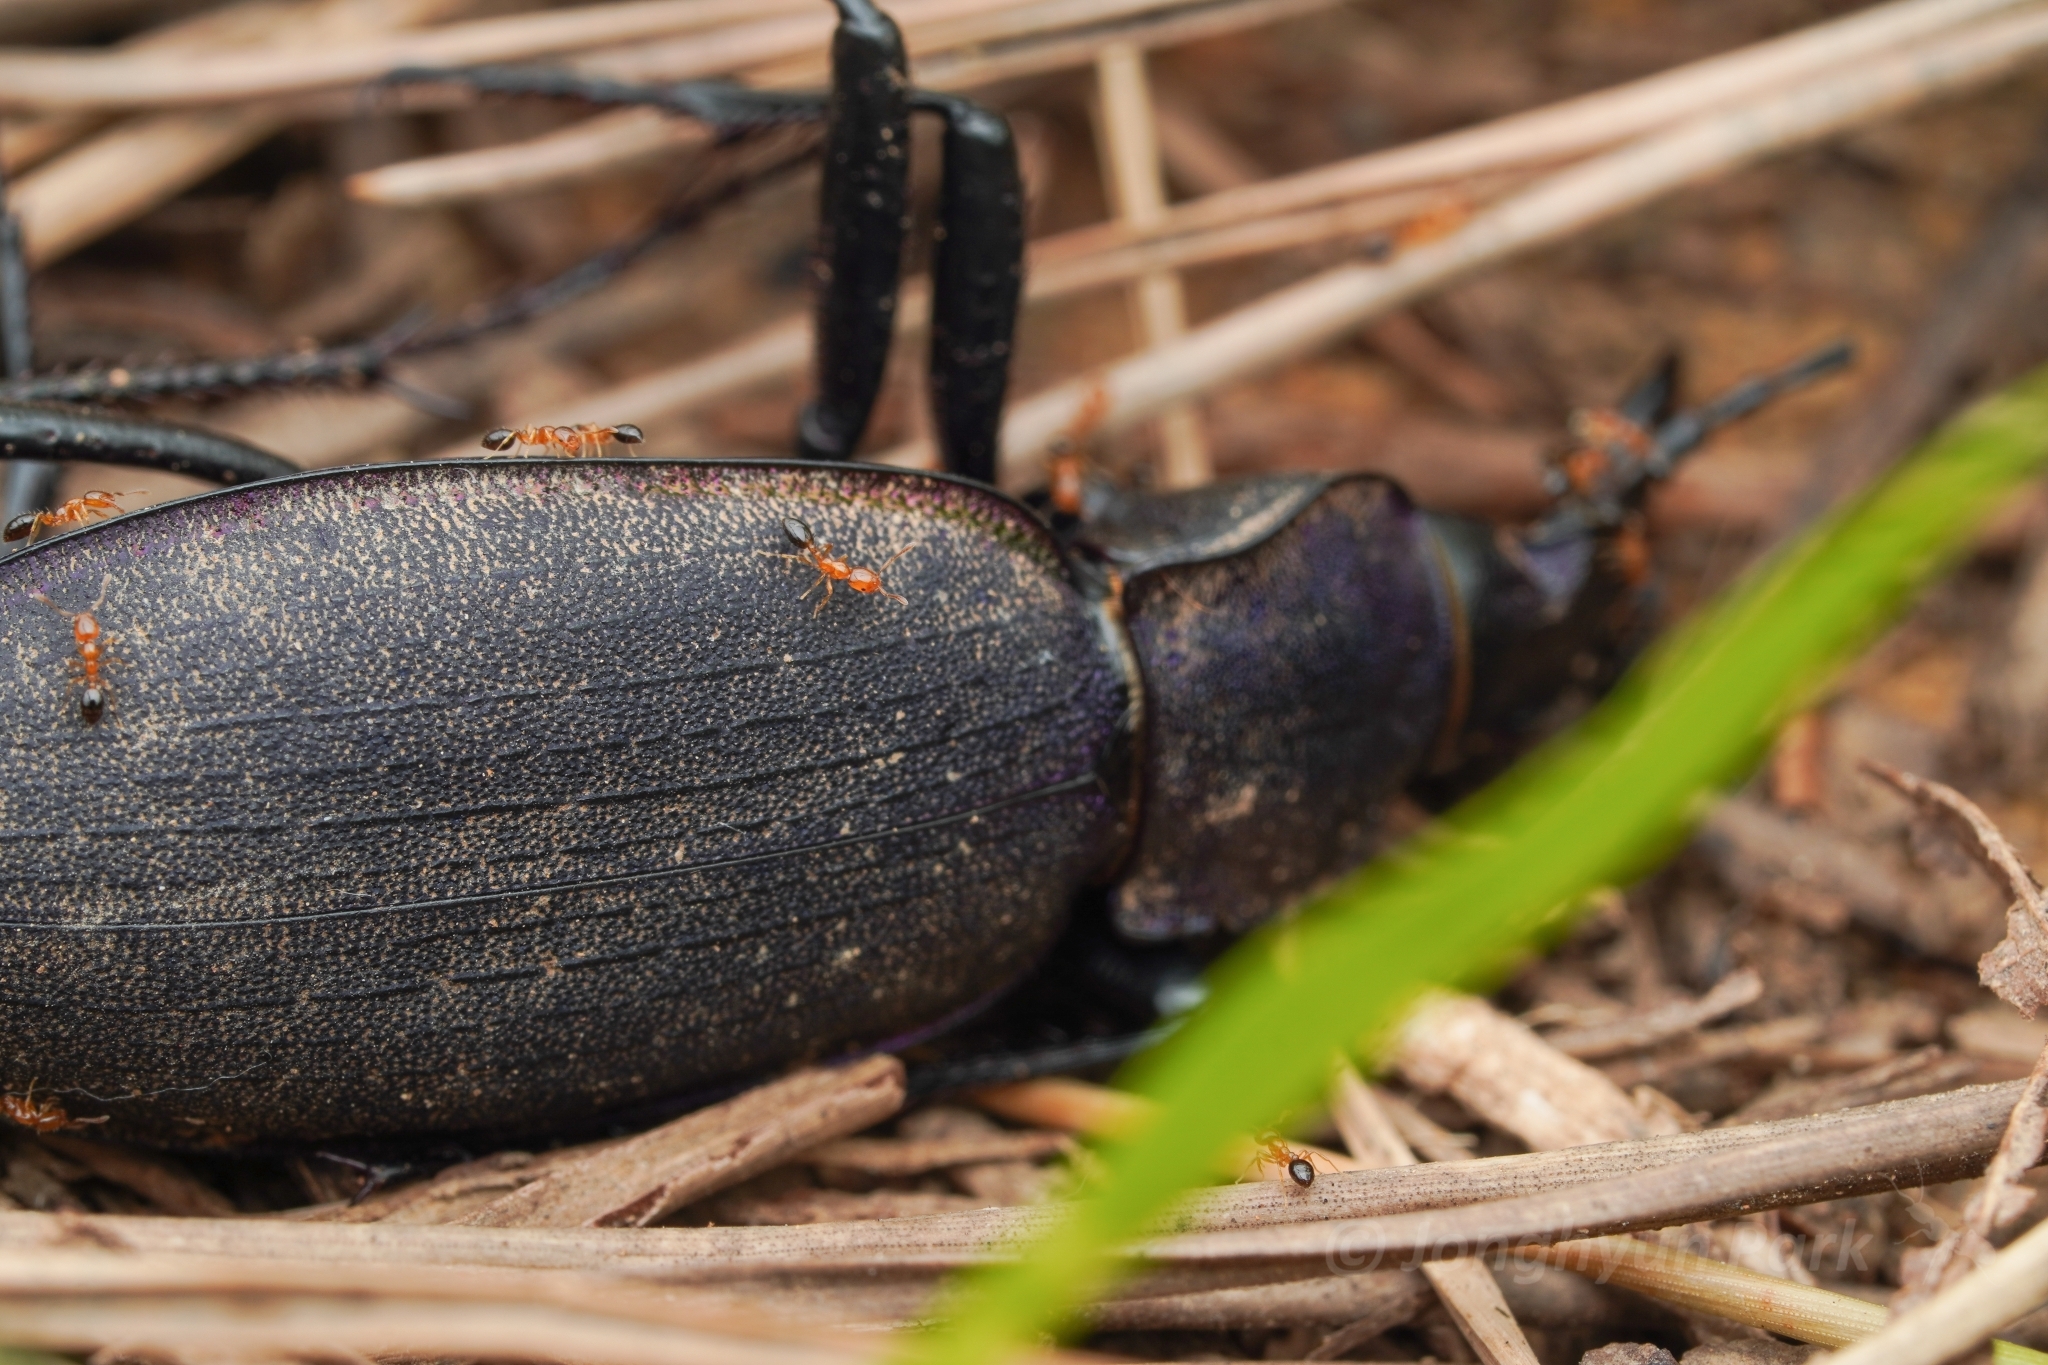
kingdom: Animalia
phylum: Arthropoda
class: Insecta
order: Hymenoptera
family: Formicidae
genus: Monomorium
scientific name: Monomorium intrudens
